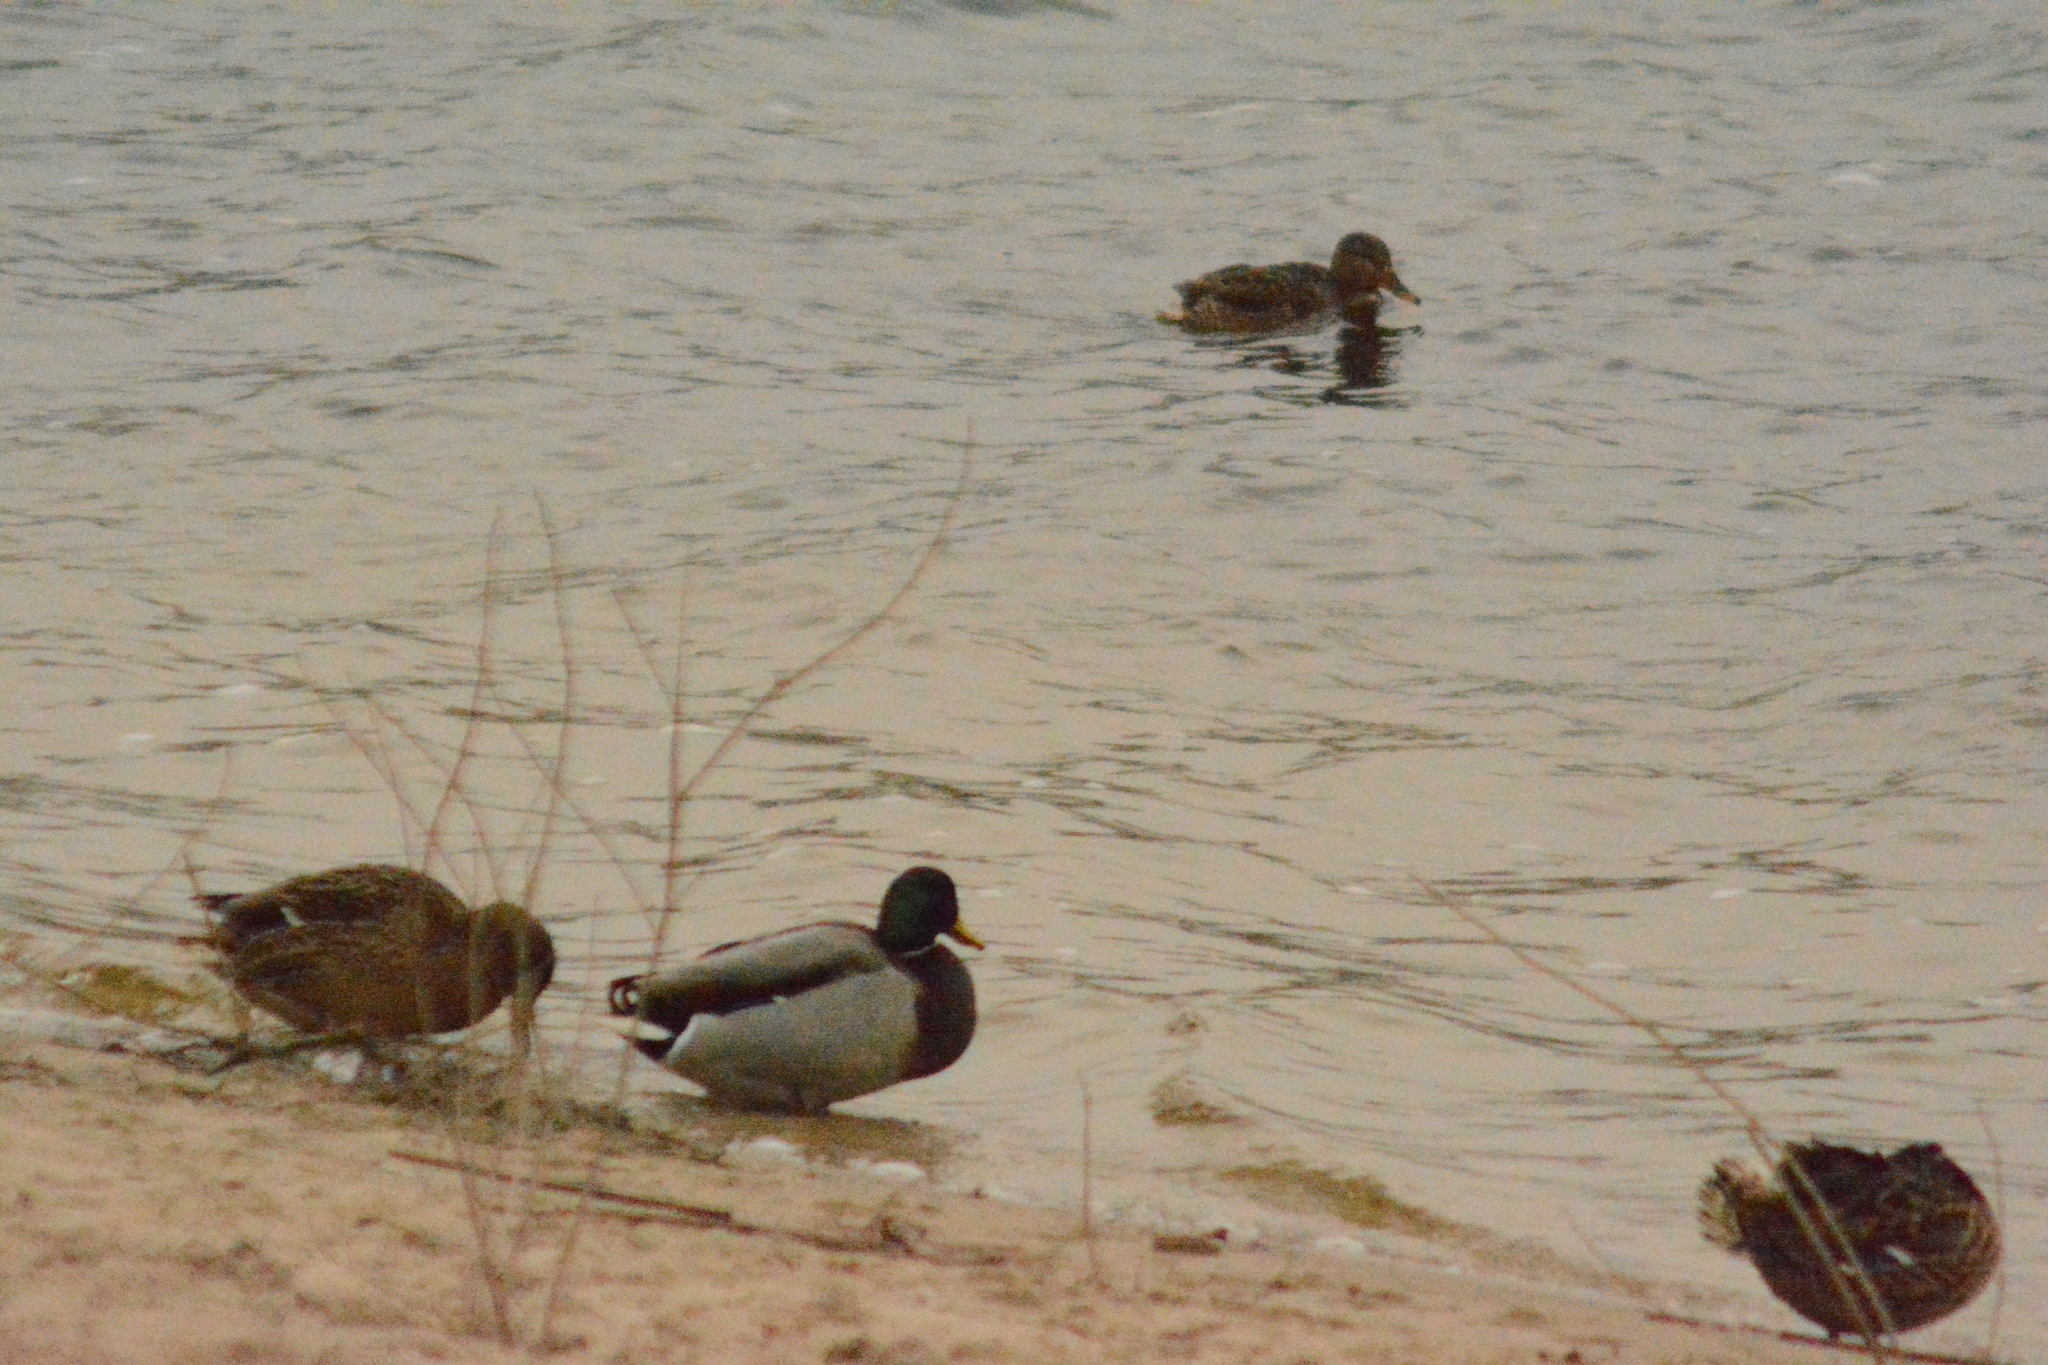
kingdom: Animalia
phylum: Chordata
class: Aves
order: Anseriformes
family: Anatidae
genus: Anas
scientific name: Anas platyrhynchos
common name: Mallard
